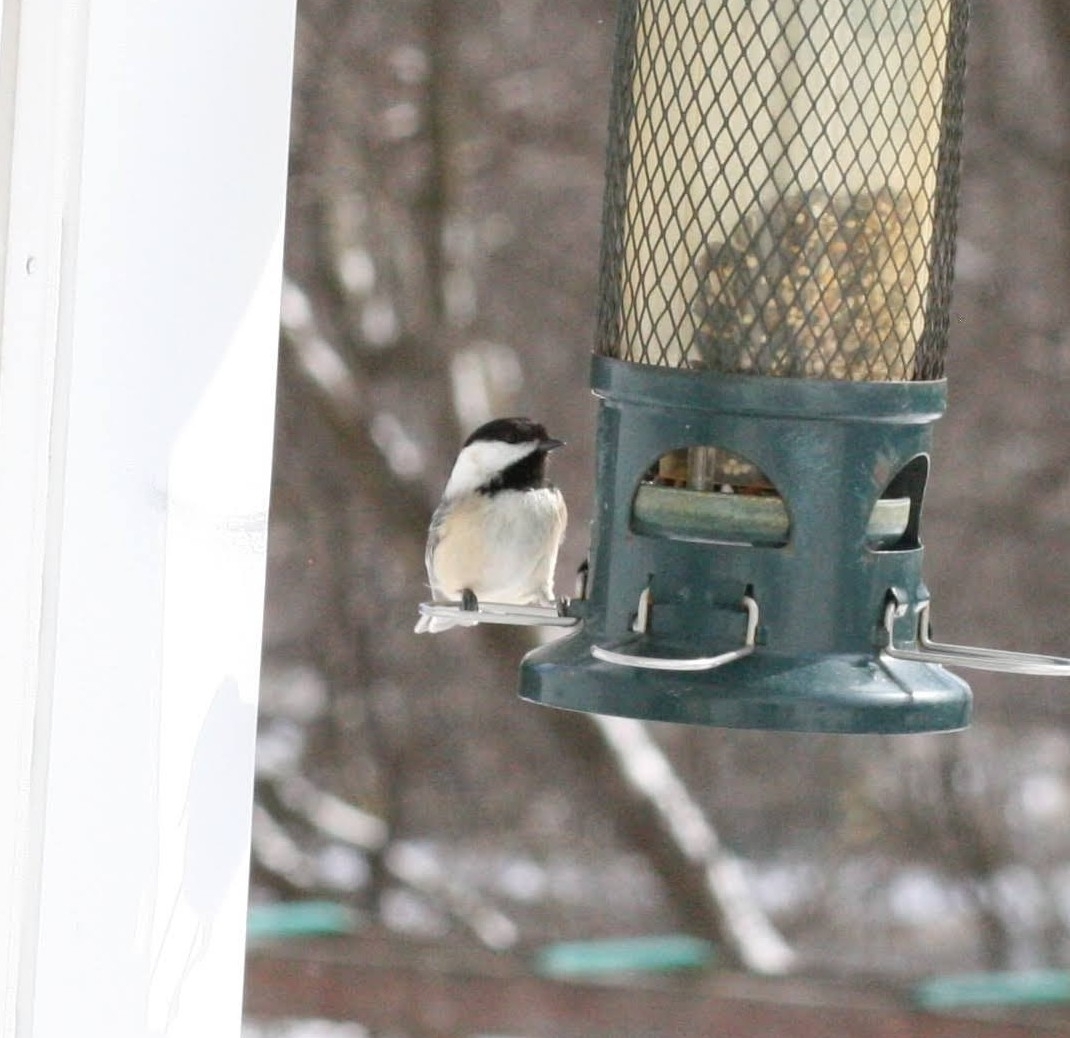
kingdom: Animalia
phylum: Chordata
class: Aves
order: Passeriformes
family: Paridae
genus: Poecile
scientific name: Poecile atricapillus
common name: Black-capped chickadee
